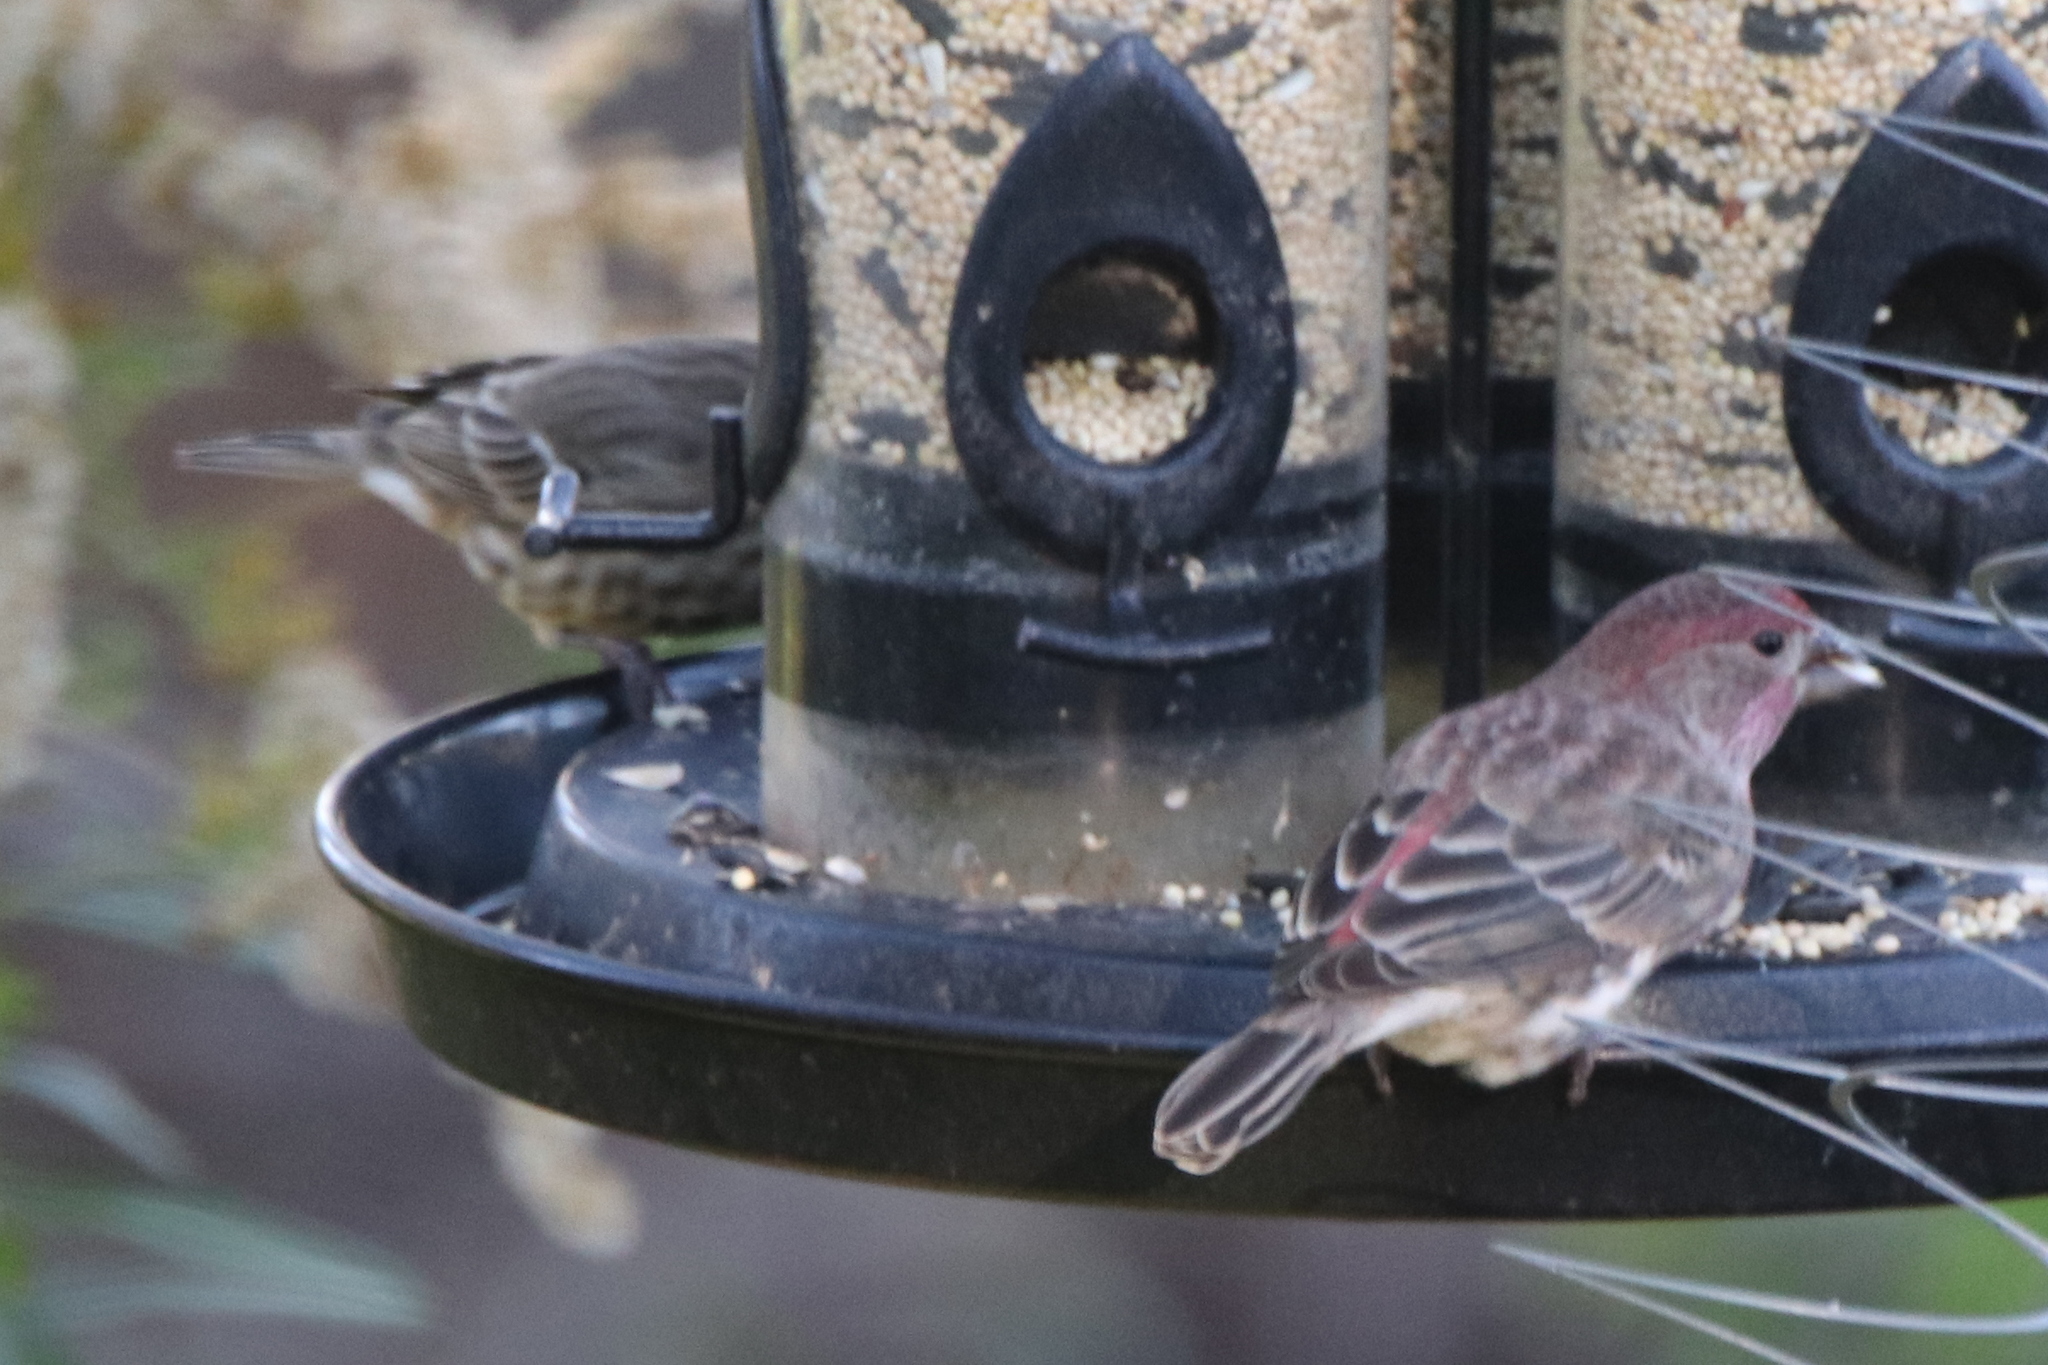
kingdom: Animalia
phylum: Chordata
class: Aves
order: Passeriformes
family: Fringillidae
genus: Haemorhous
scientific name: Haemorhous mexicanus
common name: House finch
